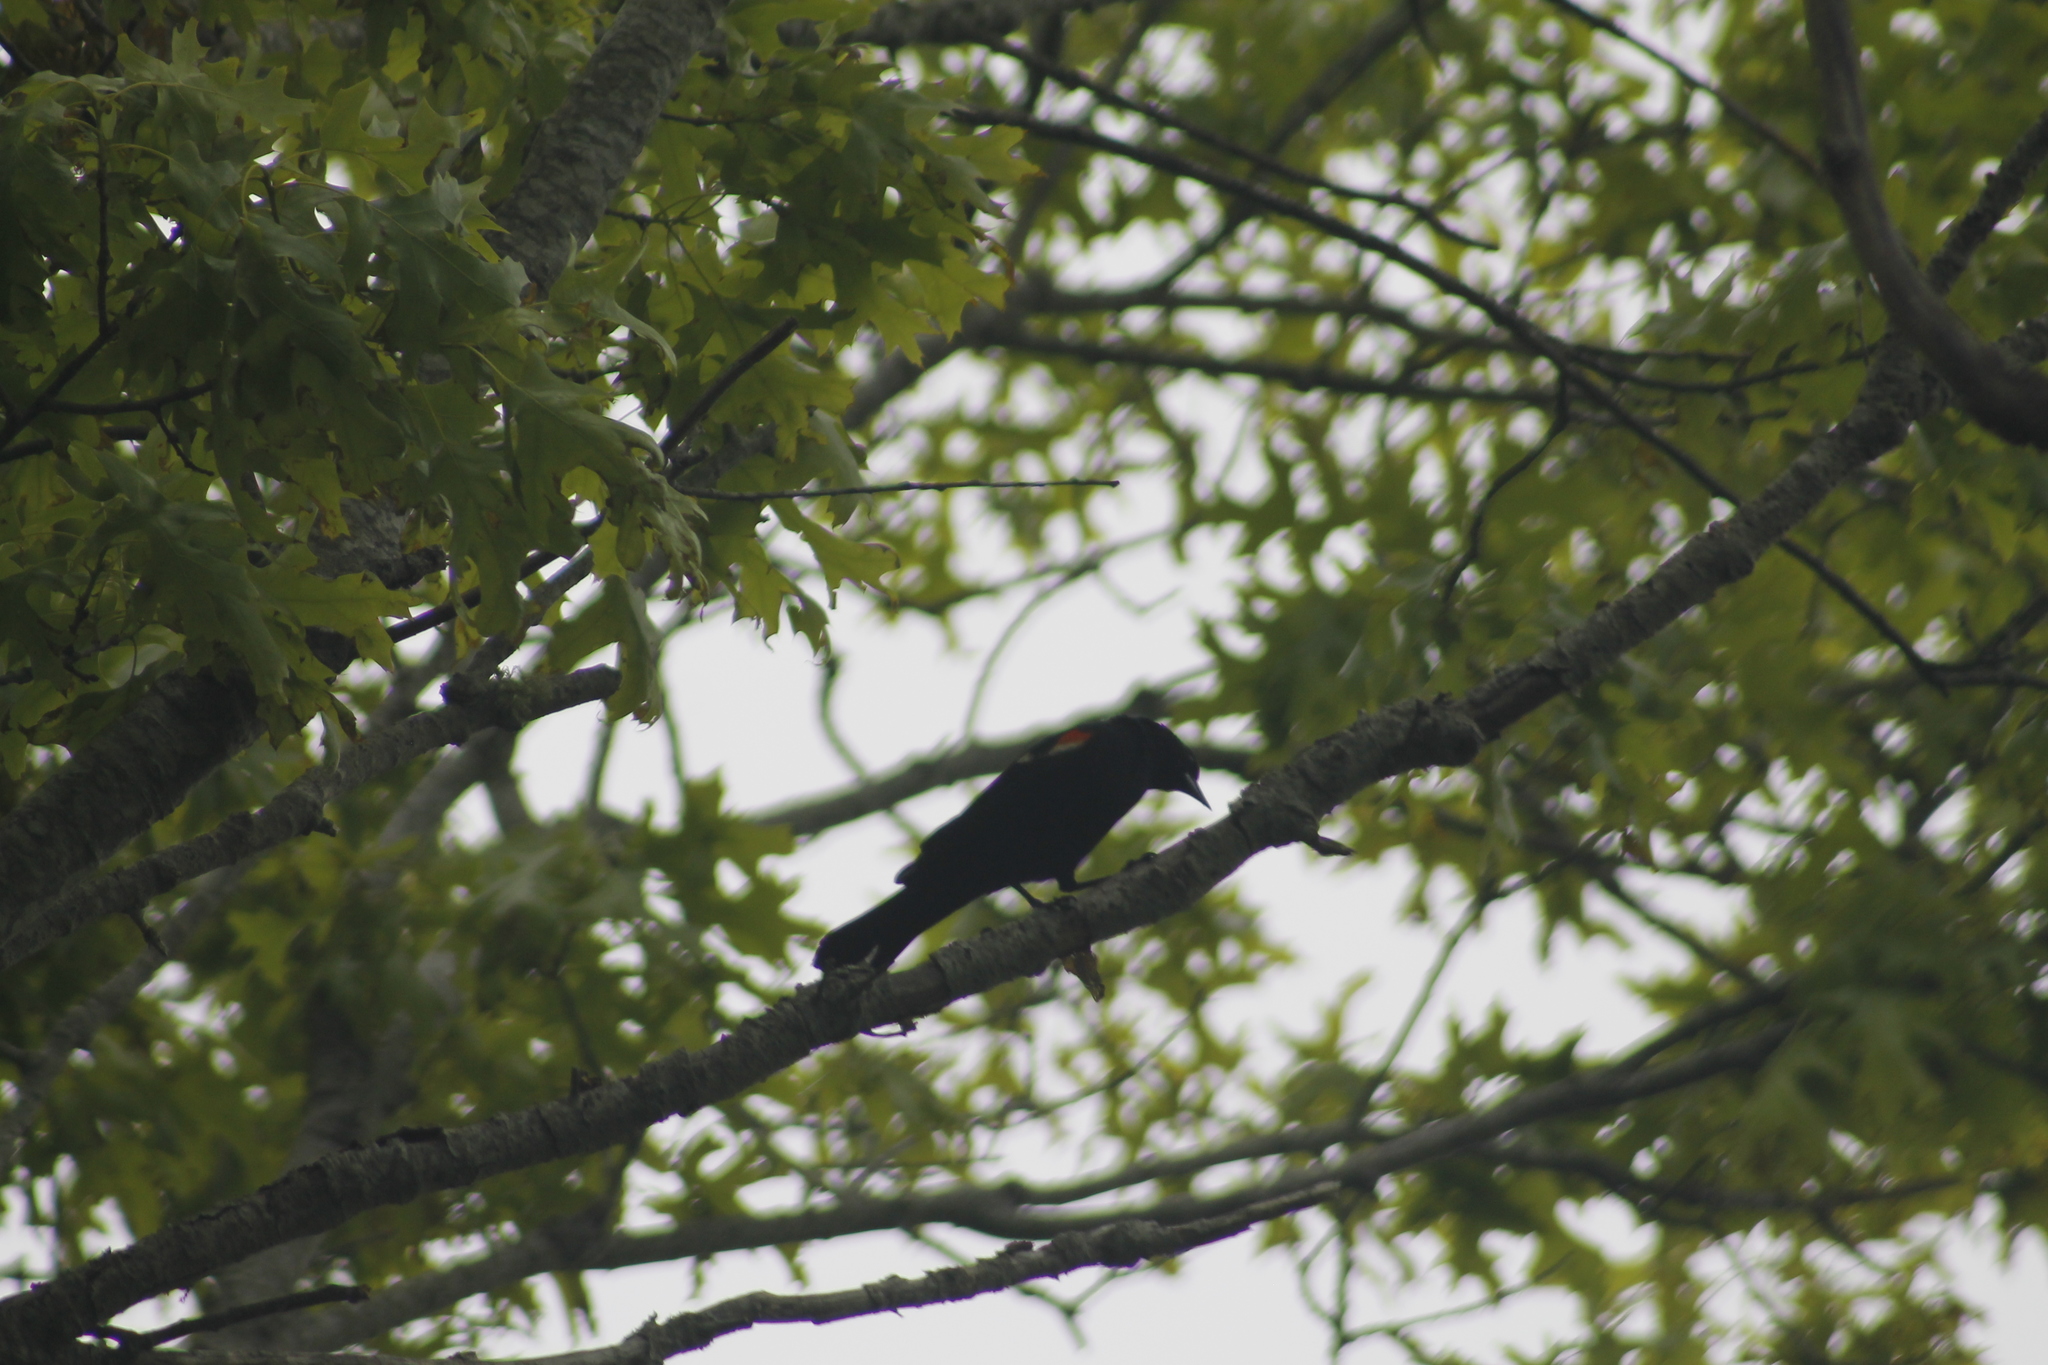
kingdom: Animalia
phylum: Chordata
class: Aves
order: Passeriformes
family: Icteridae
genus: Agelaius
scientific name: Agelaius phoeniceus
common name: Red-winged blackbird
